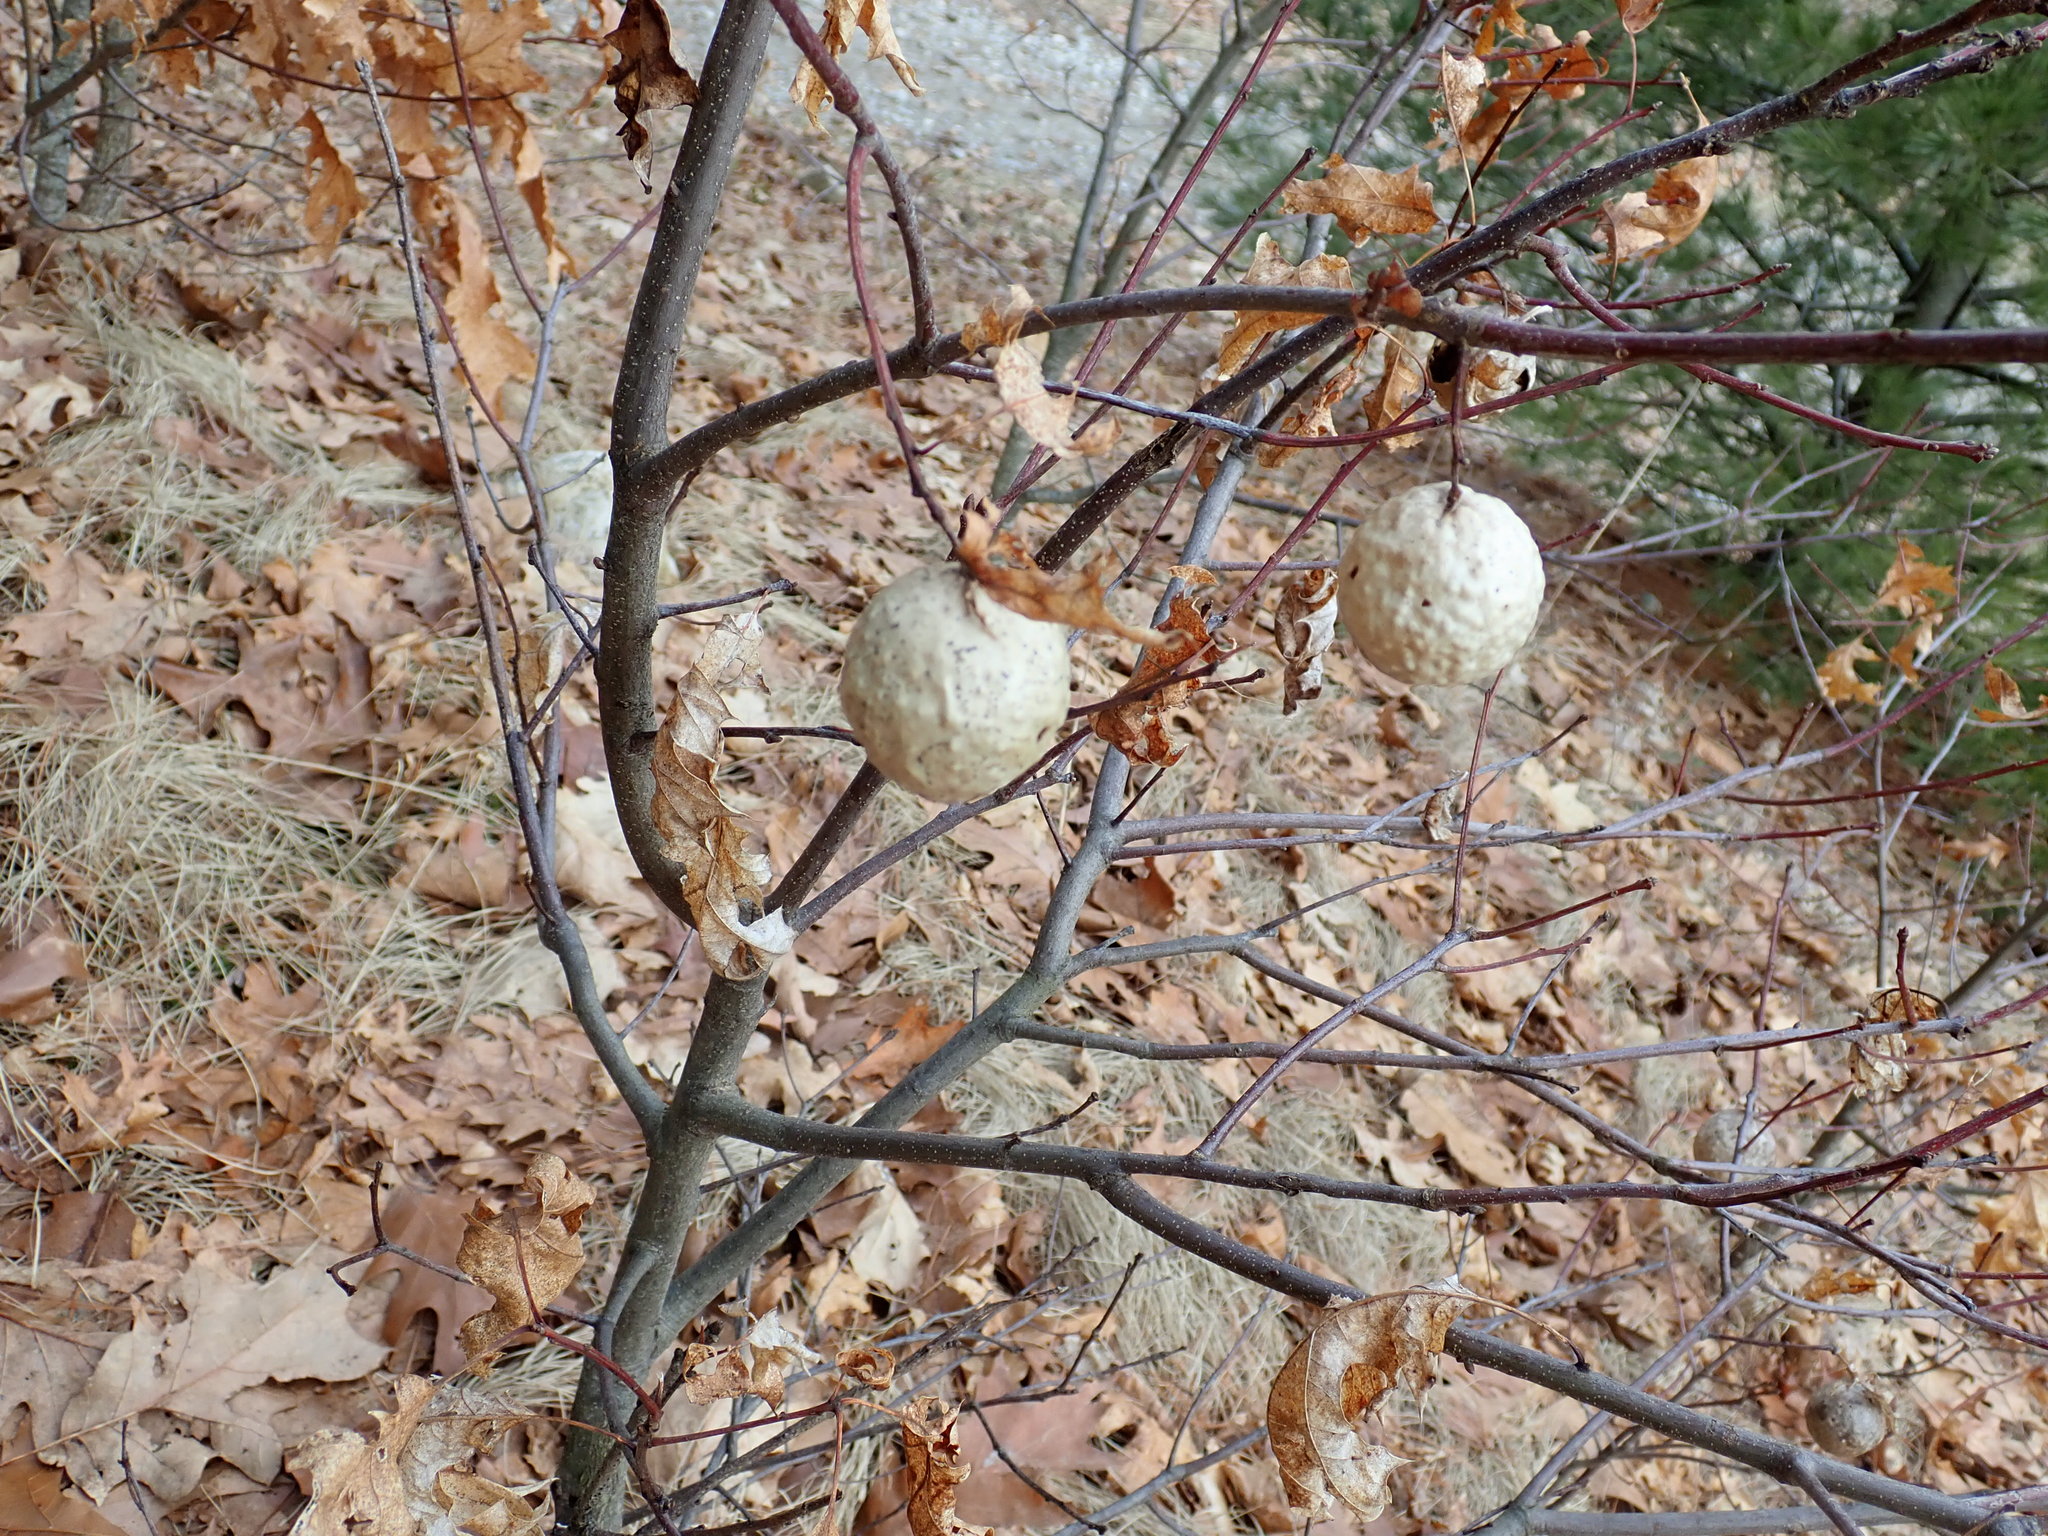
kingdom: Animalia
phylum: Arthropoda
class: Insecta
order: Hymenoptera
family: Cynipidae
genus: Amphibolips
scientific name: Amphibolips
